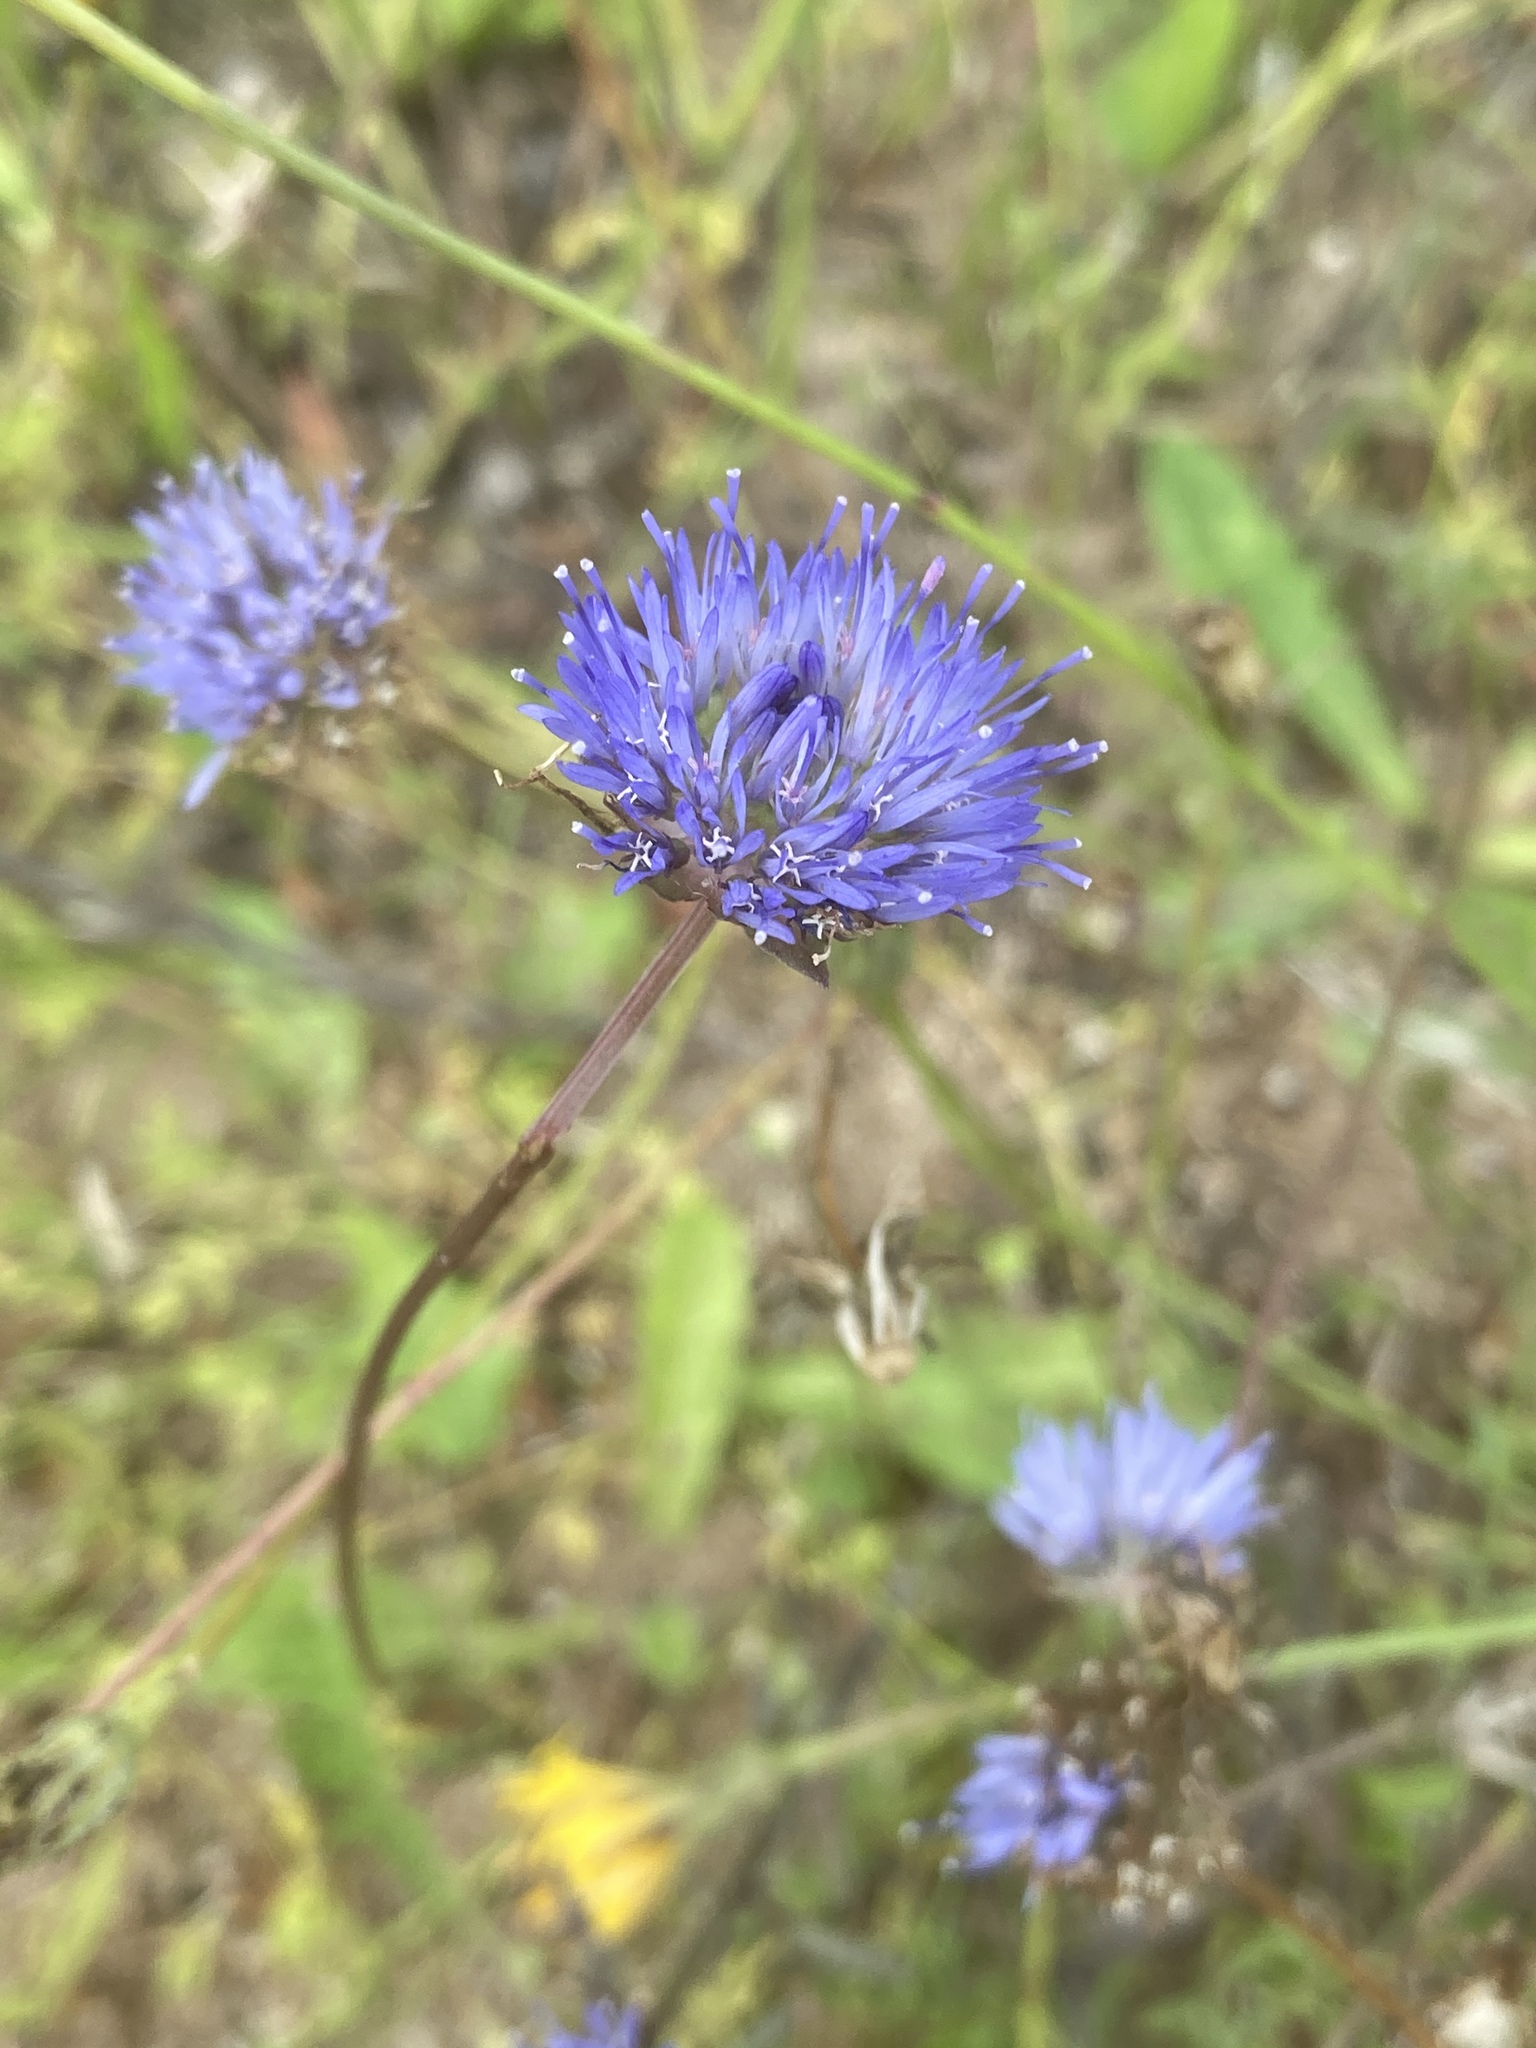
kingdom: Plantae
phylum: Tracheophyta
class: Magnoliopsida
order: Asterales
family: Campanulaceae
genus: Jasione
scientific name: Jasione montana
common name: Sheep's-bit
